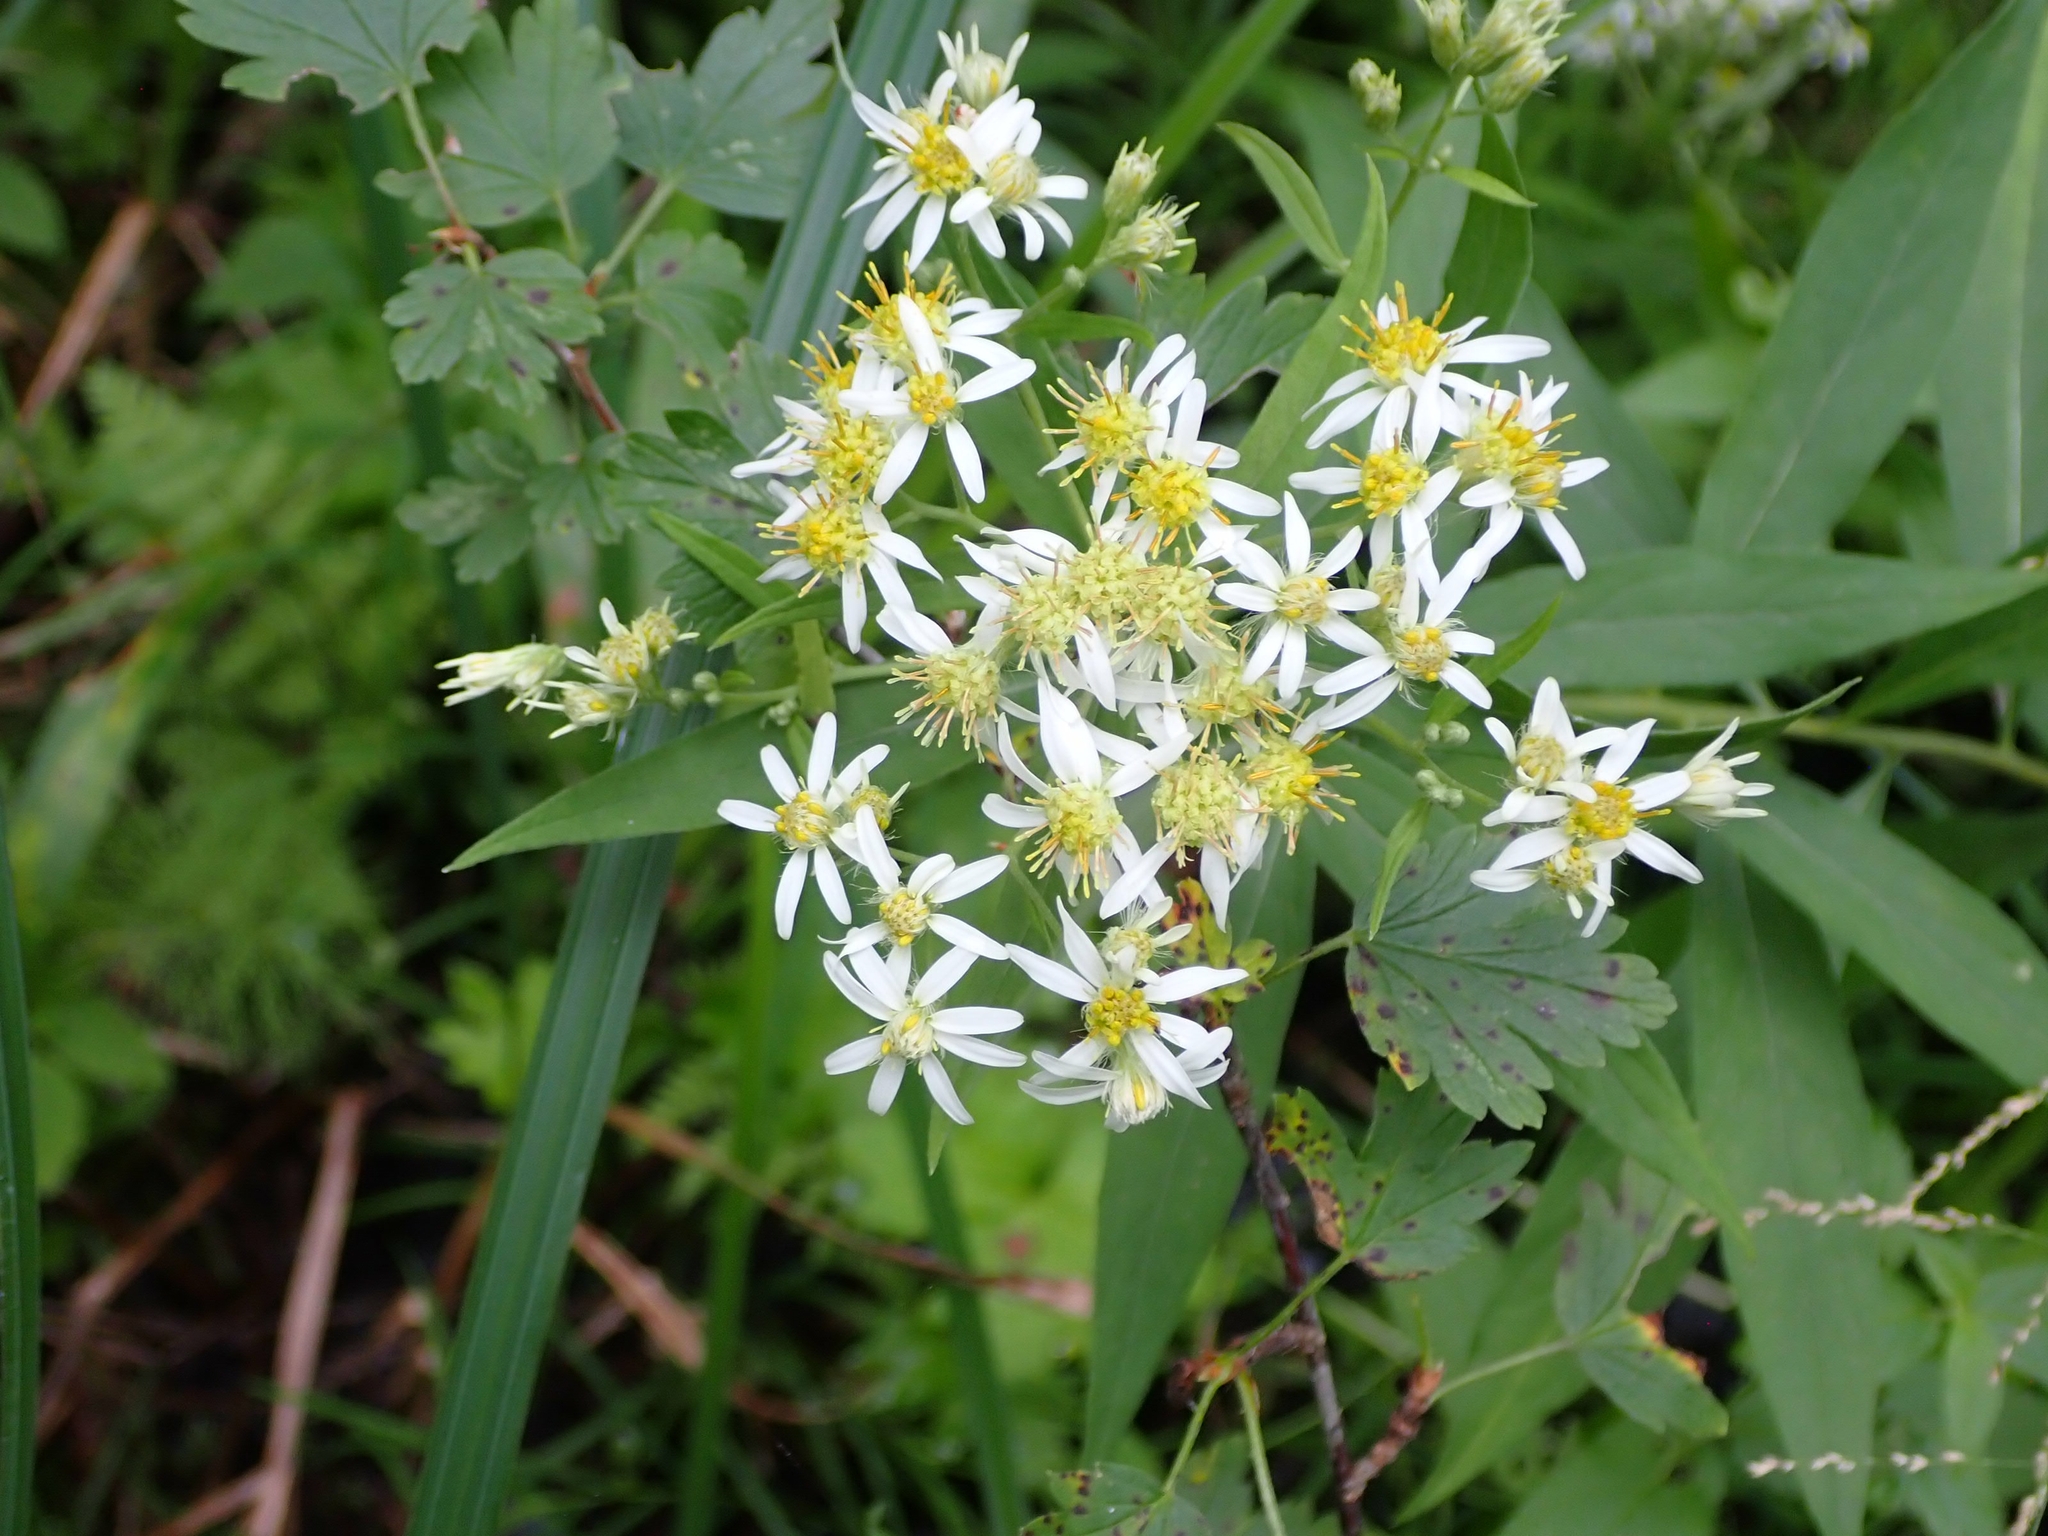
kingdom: Plantae
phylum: Tracheophyta
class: Magnoliopsida
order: Asterales
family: Asteraceae
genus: Doellingeria
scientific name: Doellingeria umbellata
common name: Flat-top white aster
